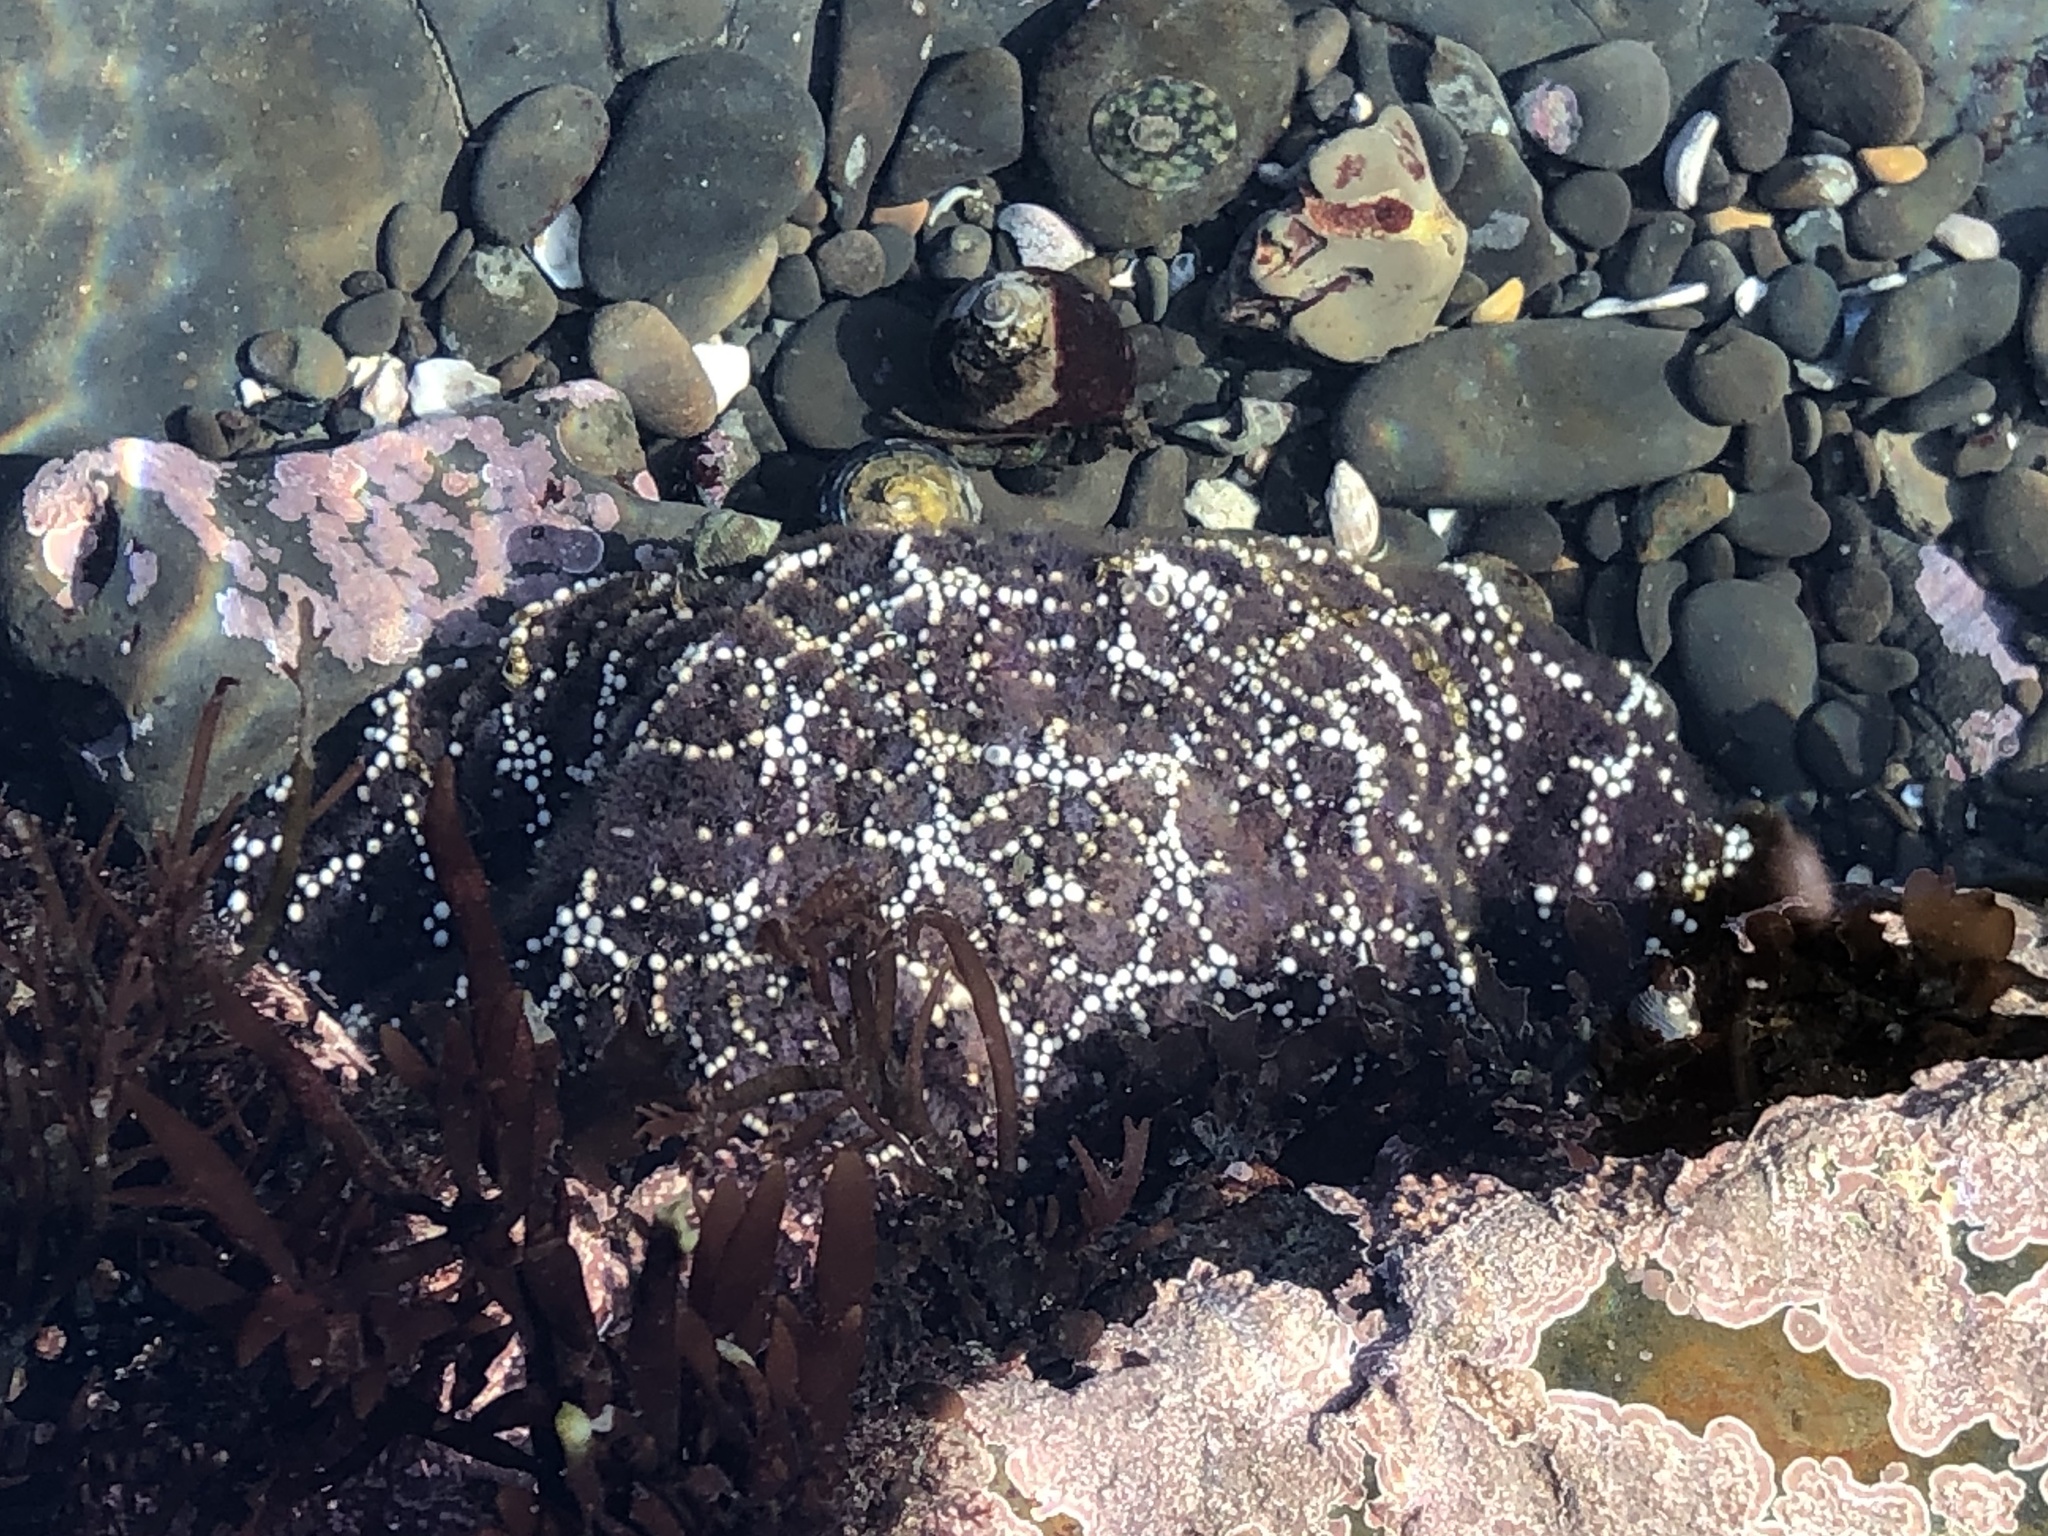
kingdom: Animalia
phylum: Echinodermata
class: Asteroidea
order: Forcipulatida
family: Asteriidae
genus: Pisaster
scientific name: Pisaster ochraceus
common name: Ochre stars
